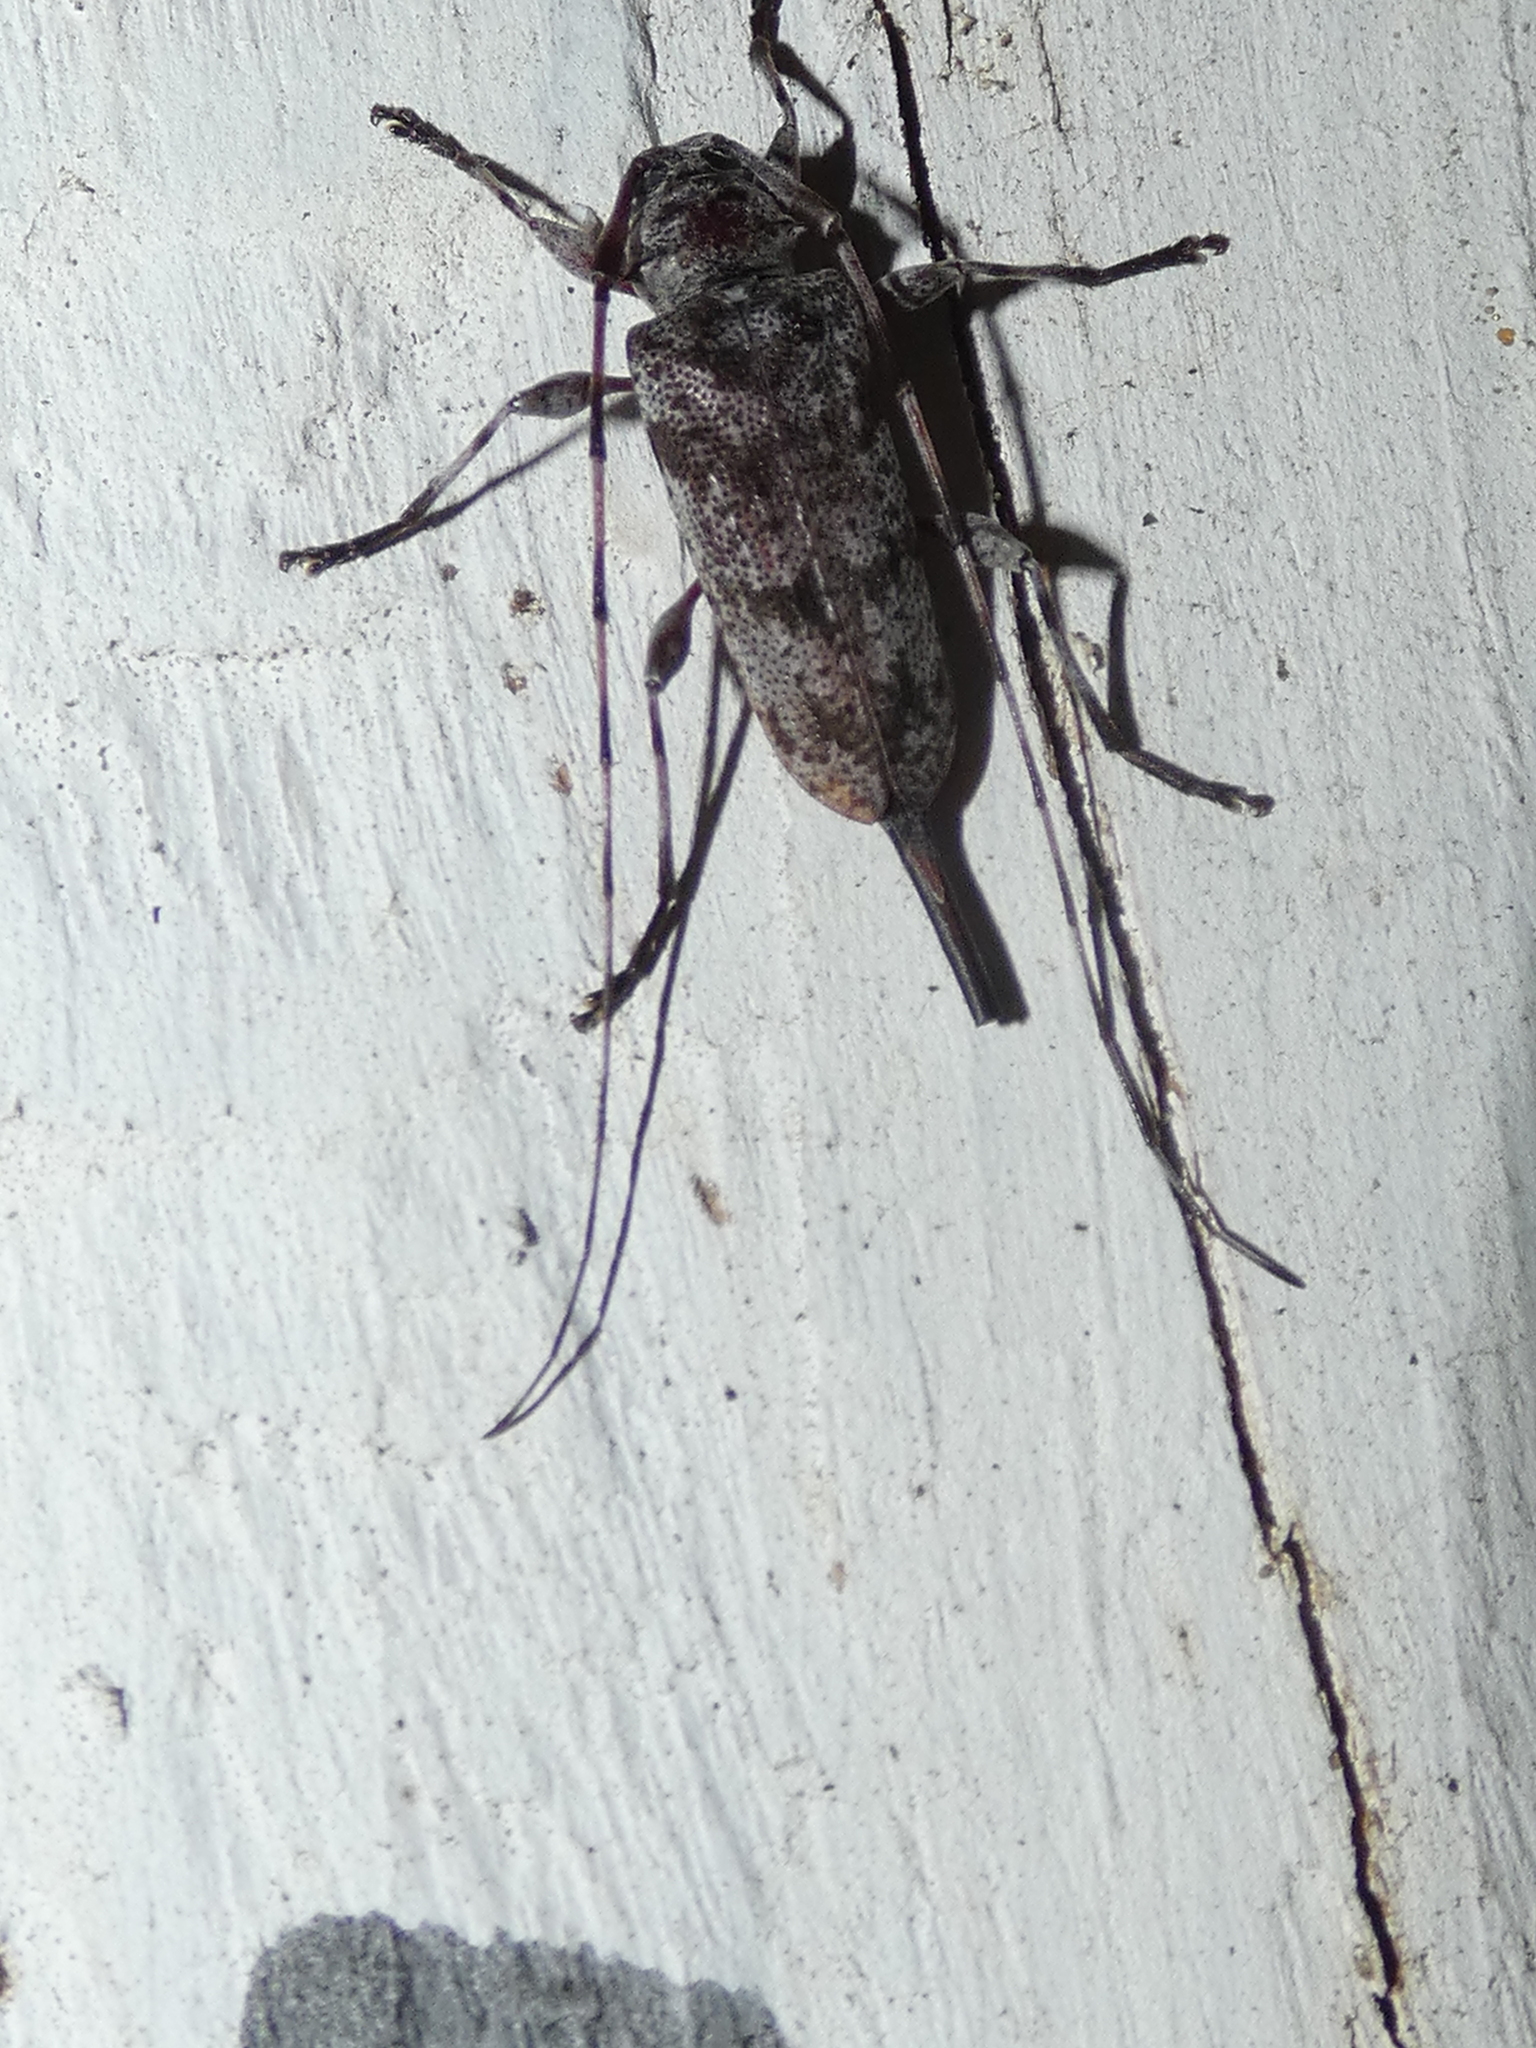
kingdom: Animalia
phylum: Arthropoda
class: Insecta
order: Coleoptera
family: Cerambycidae
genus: Acanthocinus
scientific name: Acanthocinus obsoletus
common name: Roundheaded borer
